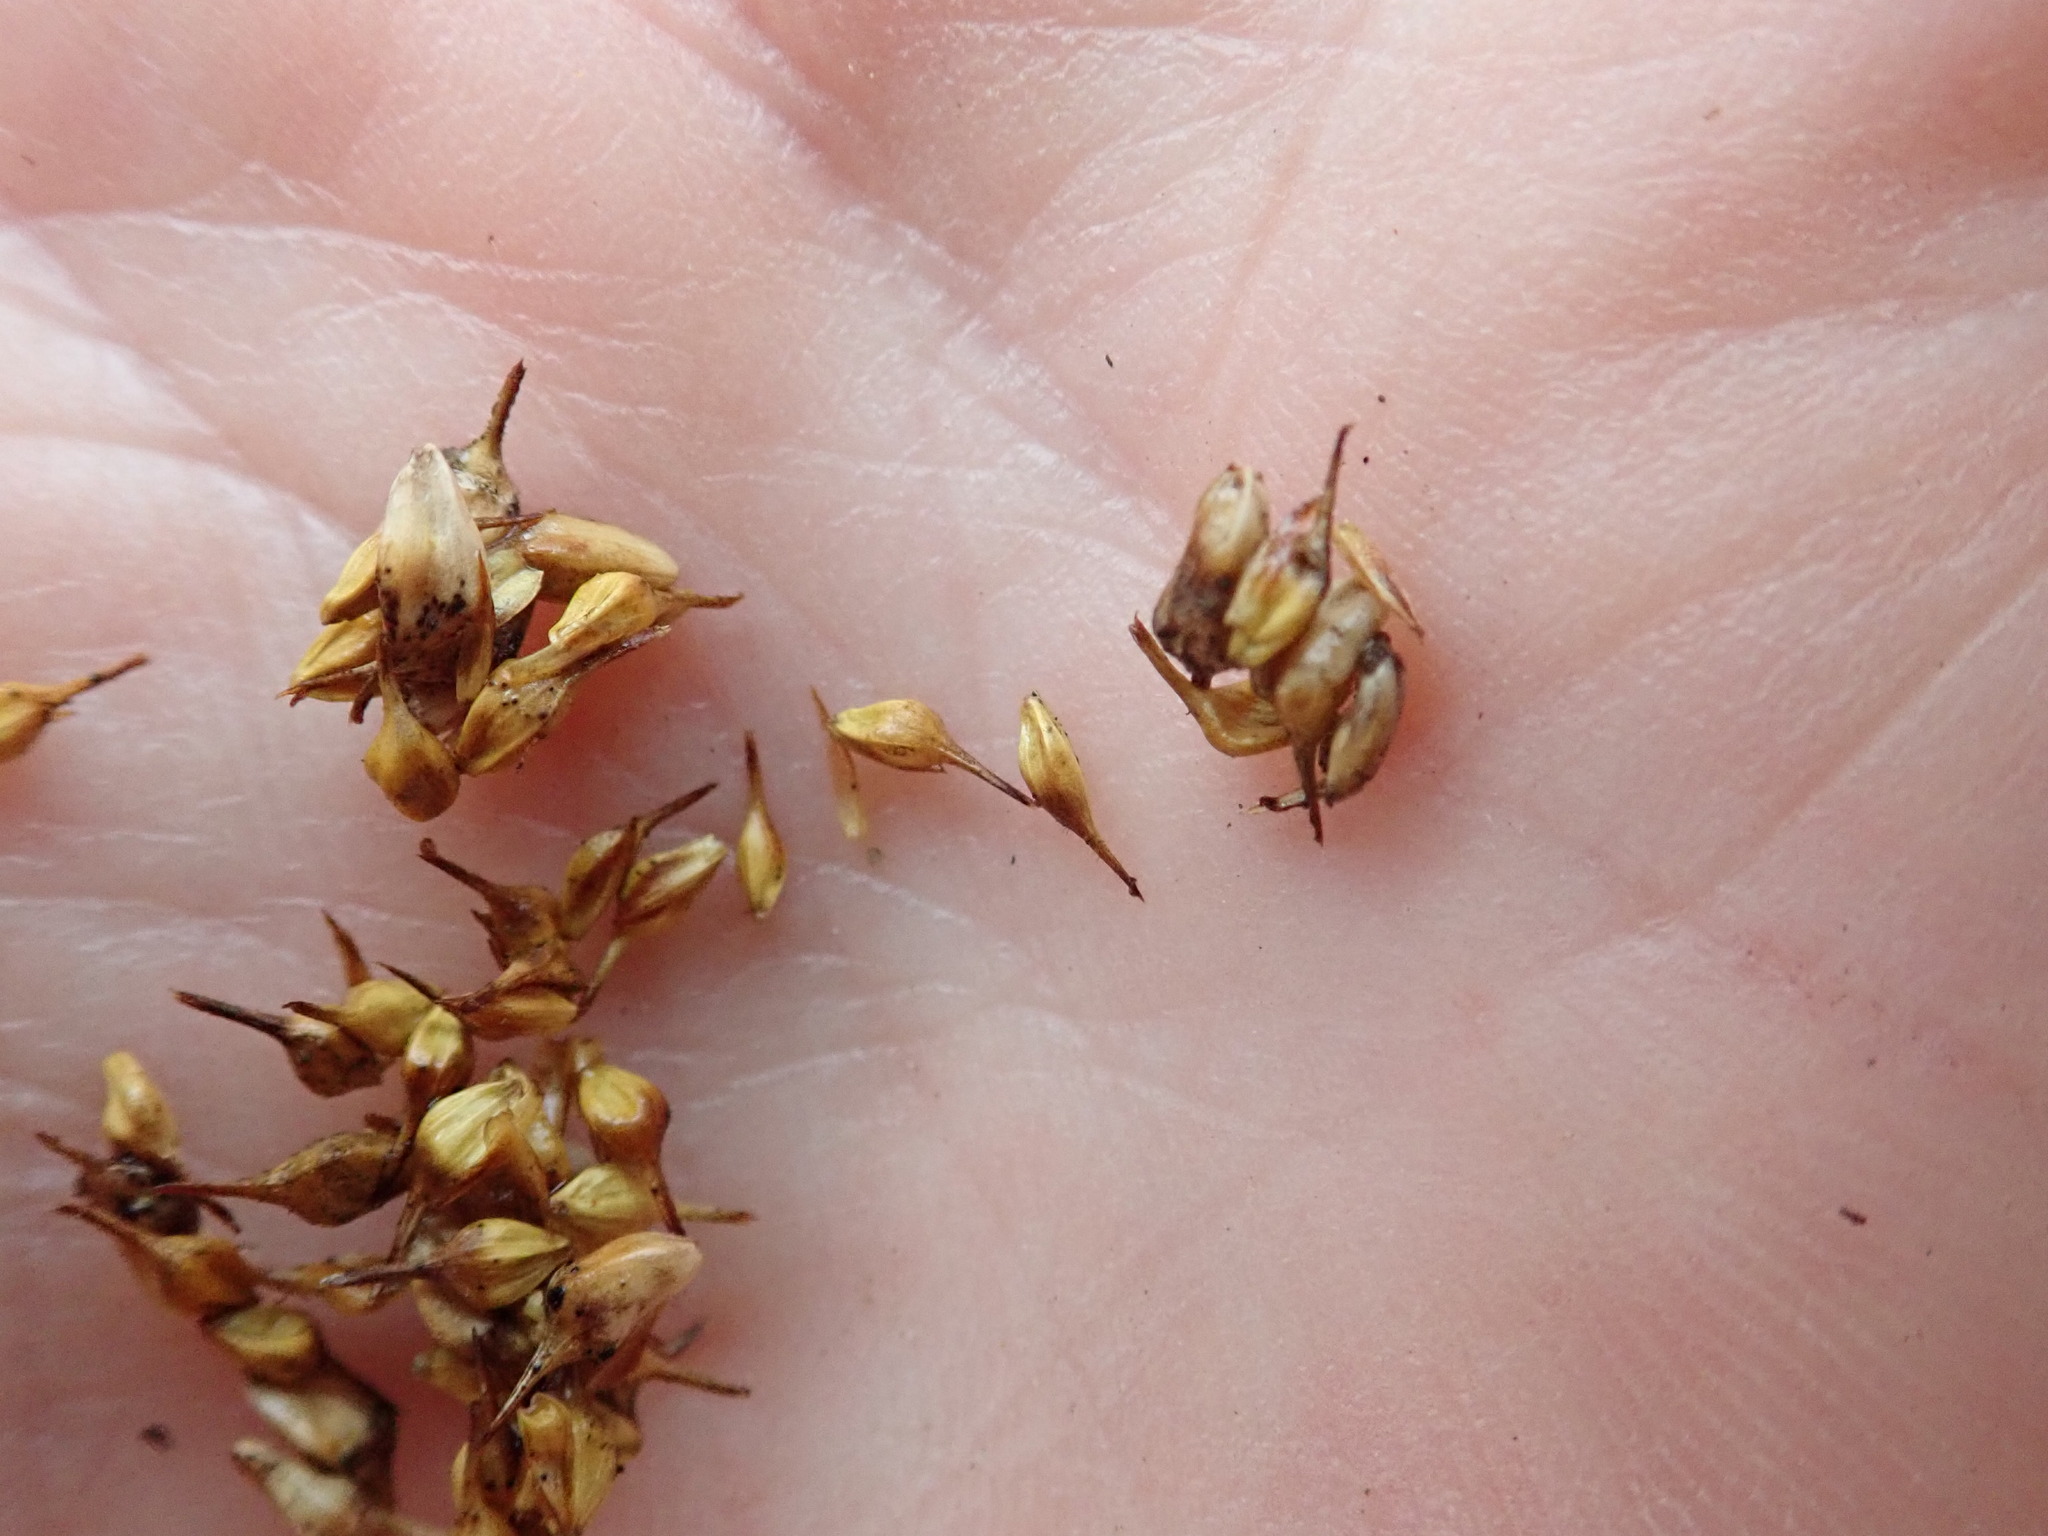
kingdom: Plantae
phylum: Tracheophyta
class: Liliopsida
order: Poales
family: Cyperaceae
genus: Carex
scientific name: Carex cryptolepis
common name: Northeastern sedge
